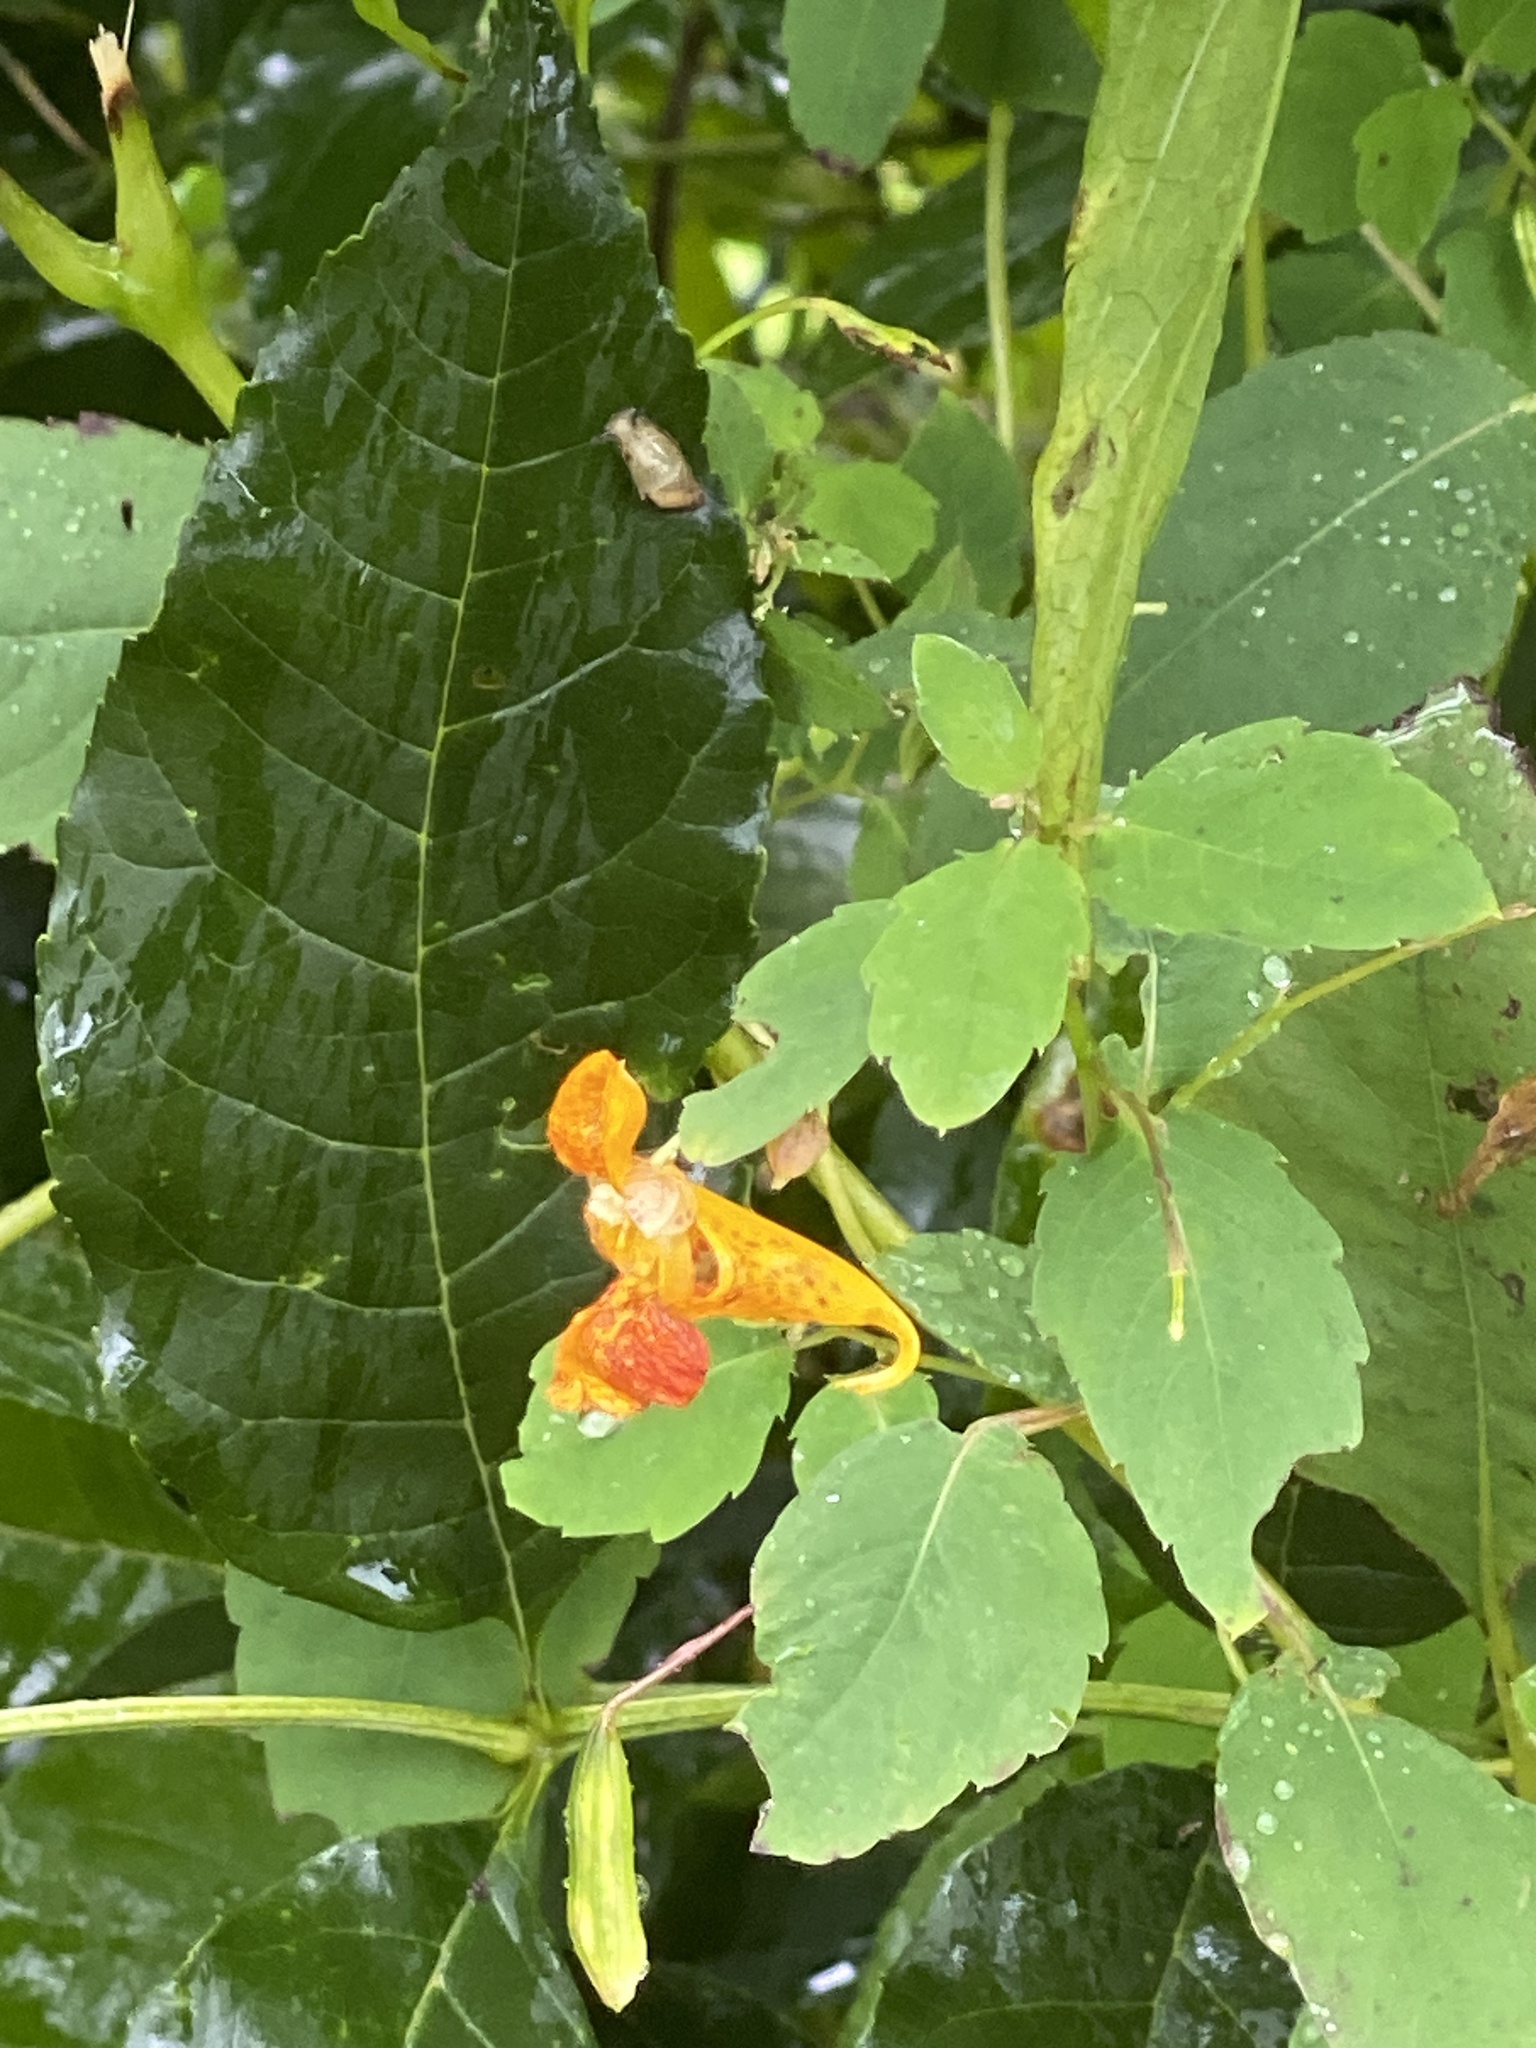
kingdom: Plantae
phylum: Tracheophyta
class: Magnoliopsida
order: Ericales
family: Balsaminaceae
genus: Impatiens
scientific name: Impatiens capensis
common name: Orange balsam
